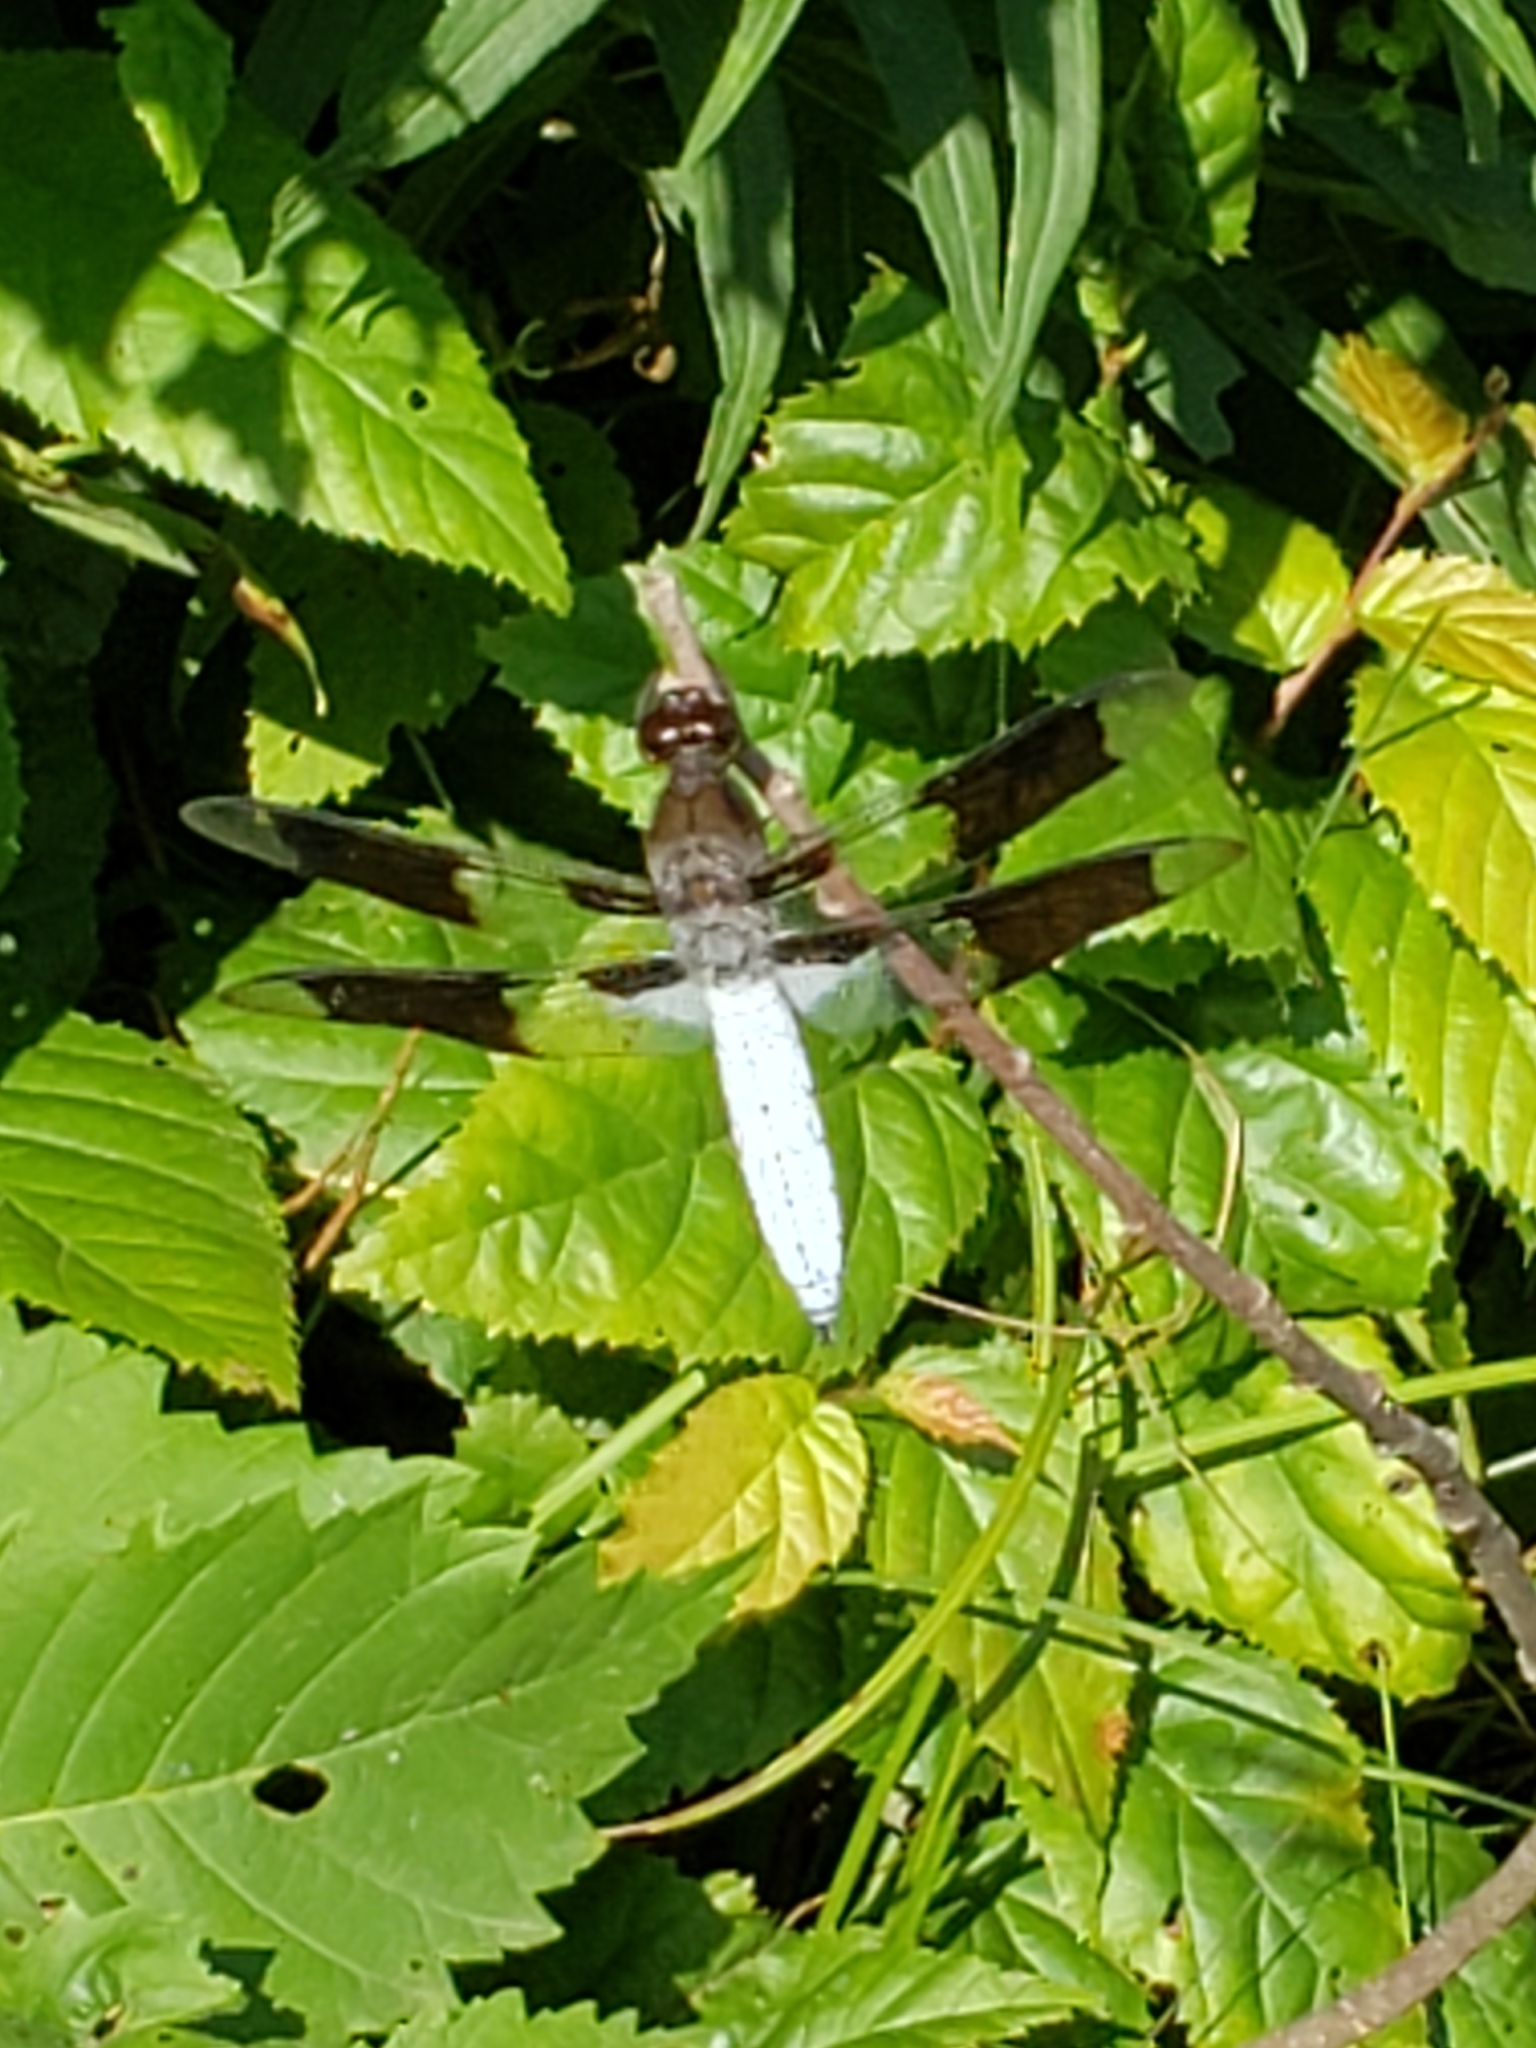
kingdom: Animalia
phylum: Arthropoda
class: Insecta
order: Odonata
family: Libellulidae
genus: Plathemis
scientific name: Plathemis lydia
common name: Common whitetail
